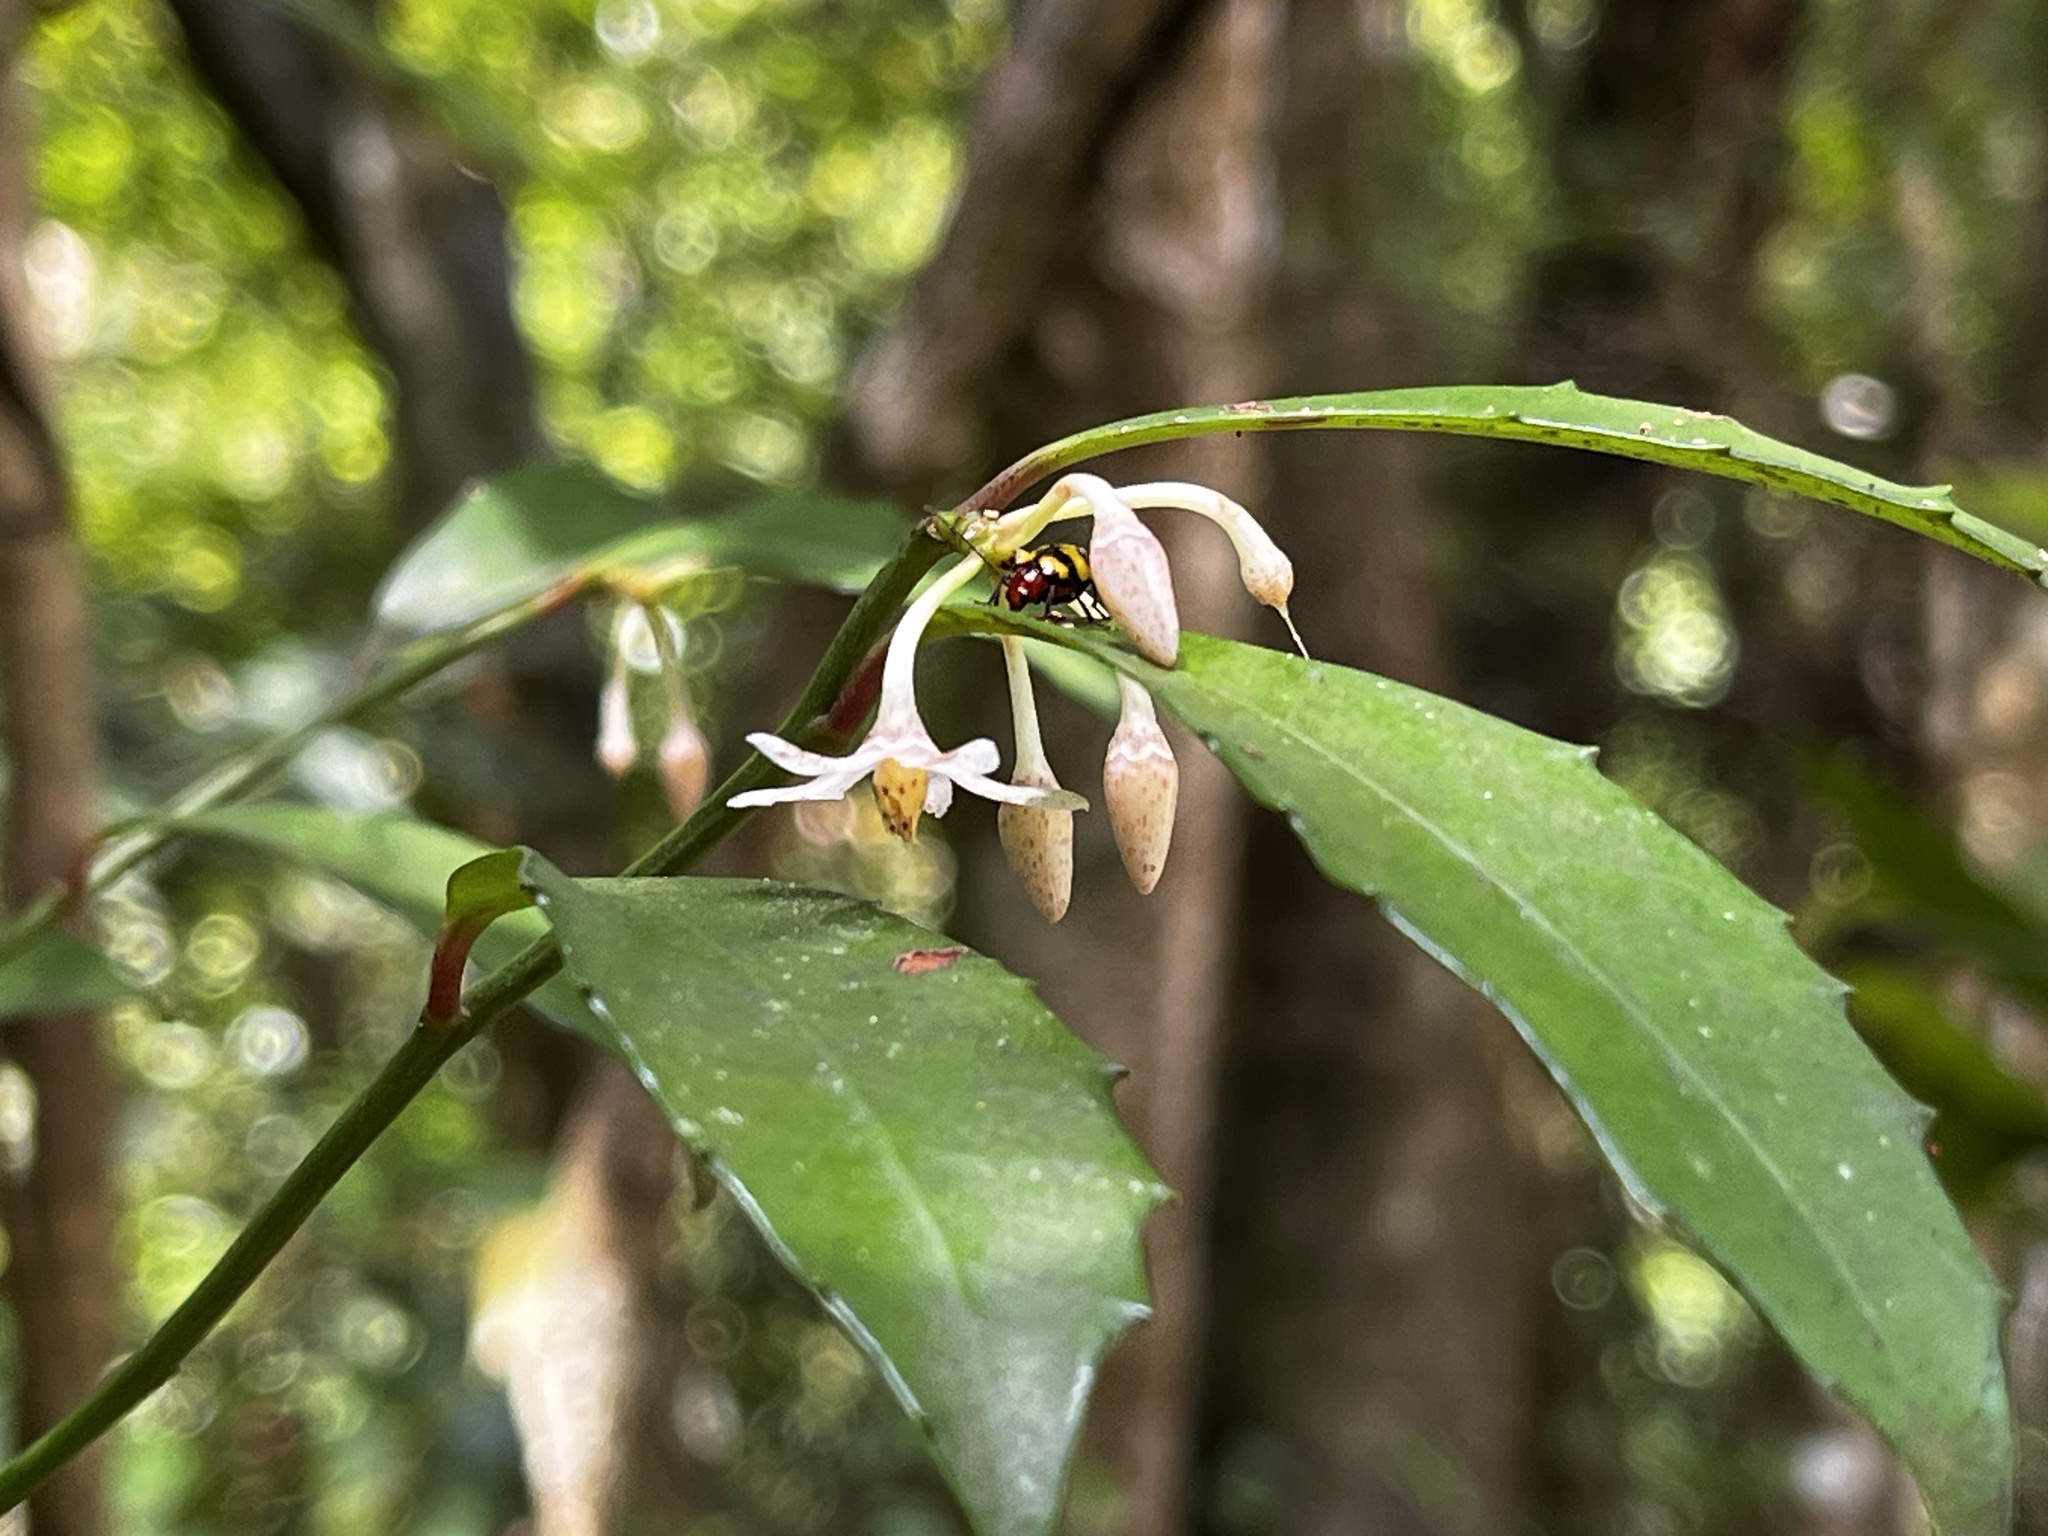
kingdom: Plantae
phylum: Tracheophyta
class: Magnoliopsida
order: Ericales
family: Primulaceae
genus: Ardisia
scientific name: Ardisia cornudentata
